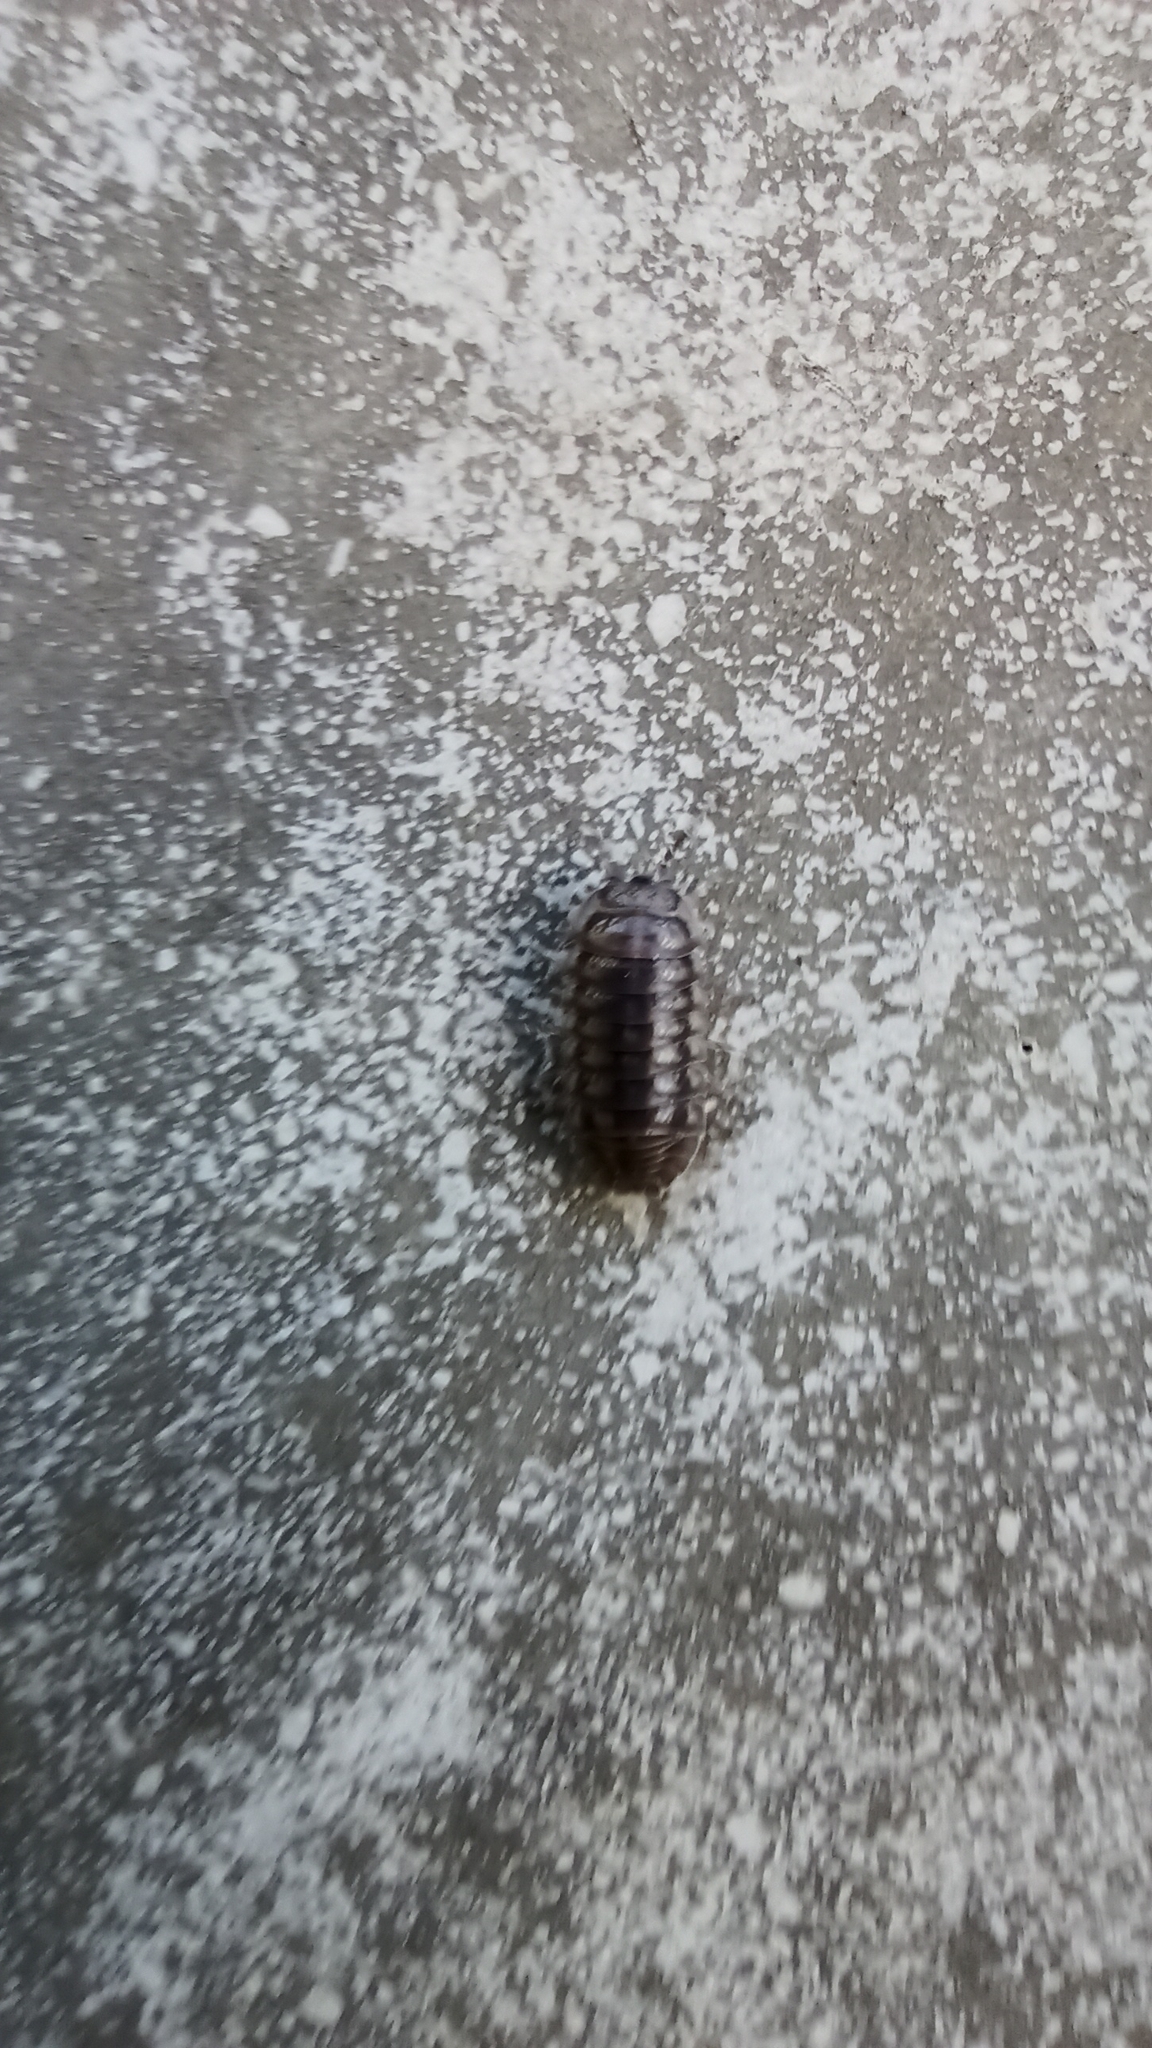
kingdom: Animalia
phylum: Arthropoda
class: Malacostraca
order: Isopoda
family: Armadillidiidae
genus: Armadillidium
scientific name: Armadillidium nasatum
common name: Isopod
